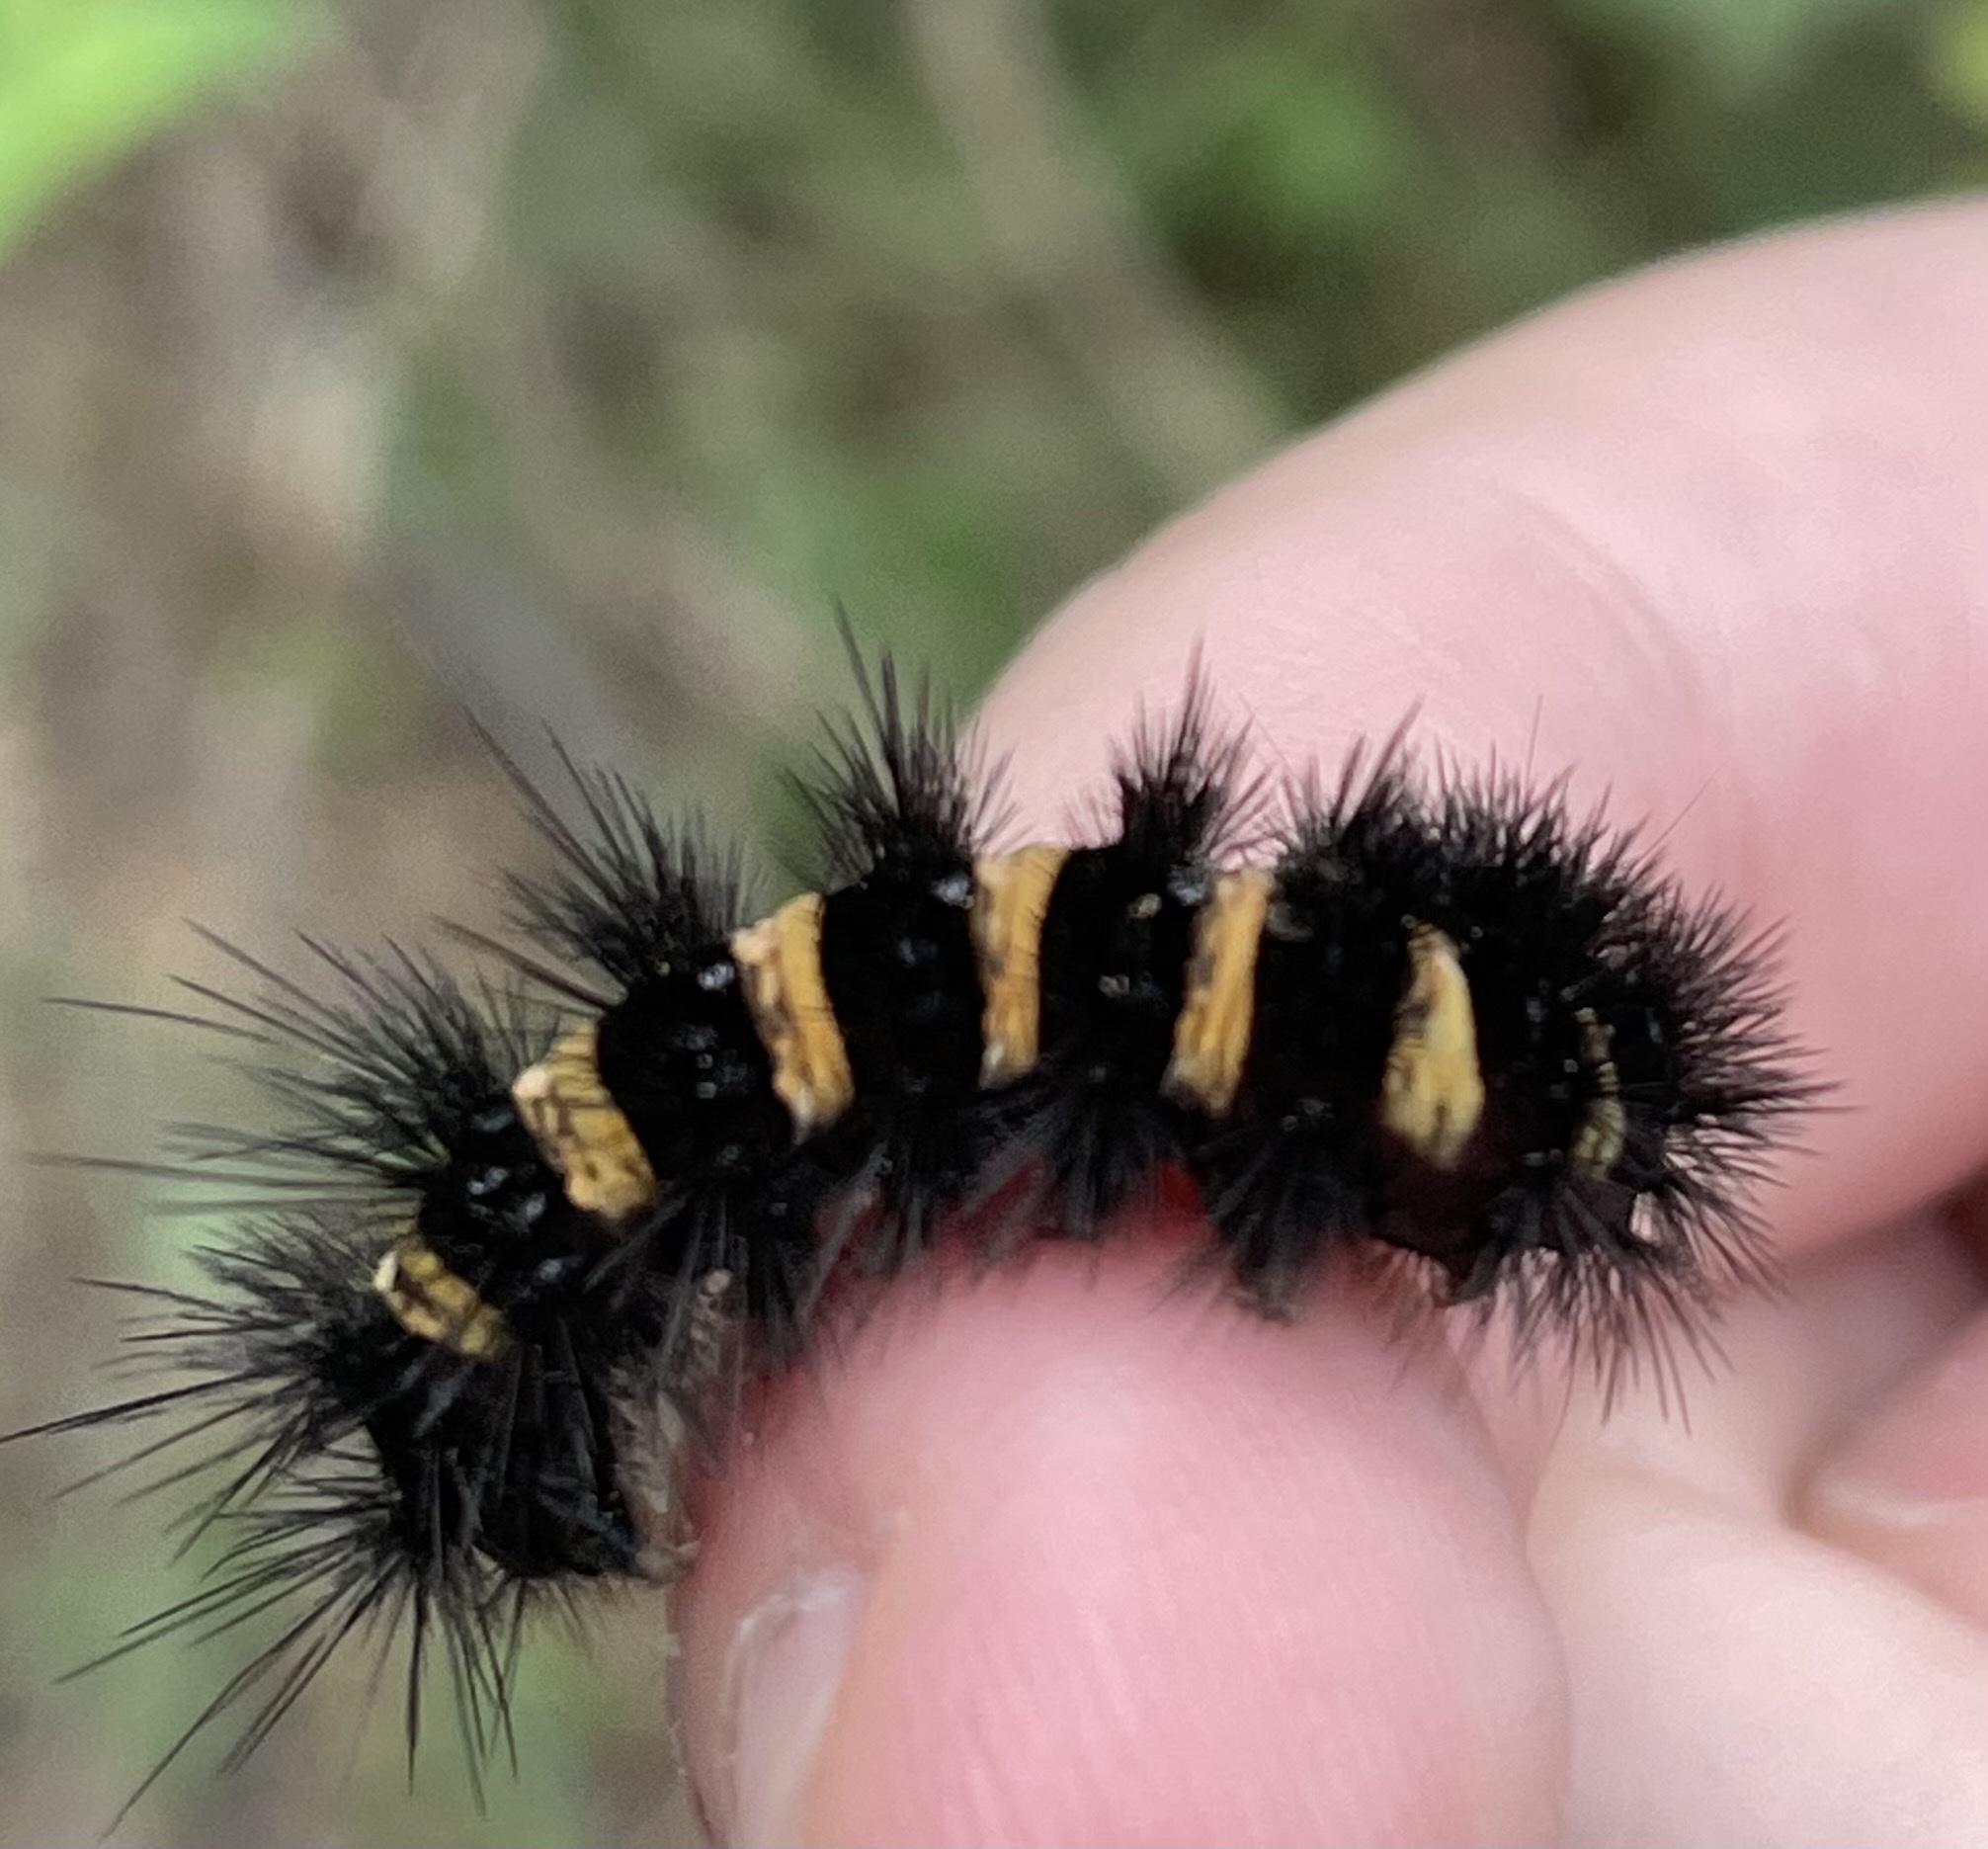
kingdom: Animalia
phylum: Arthropoda
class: Insecta
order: Lepidoptera
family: Erebidae
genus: Spilosoma
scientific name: Spilosoma congrua
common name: Agreeable tiger moth
